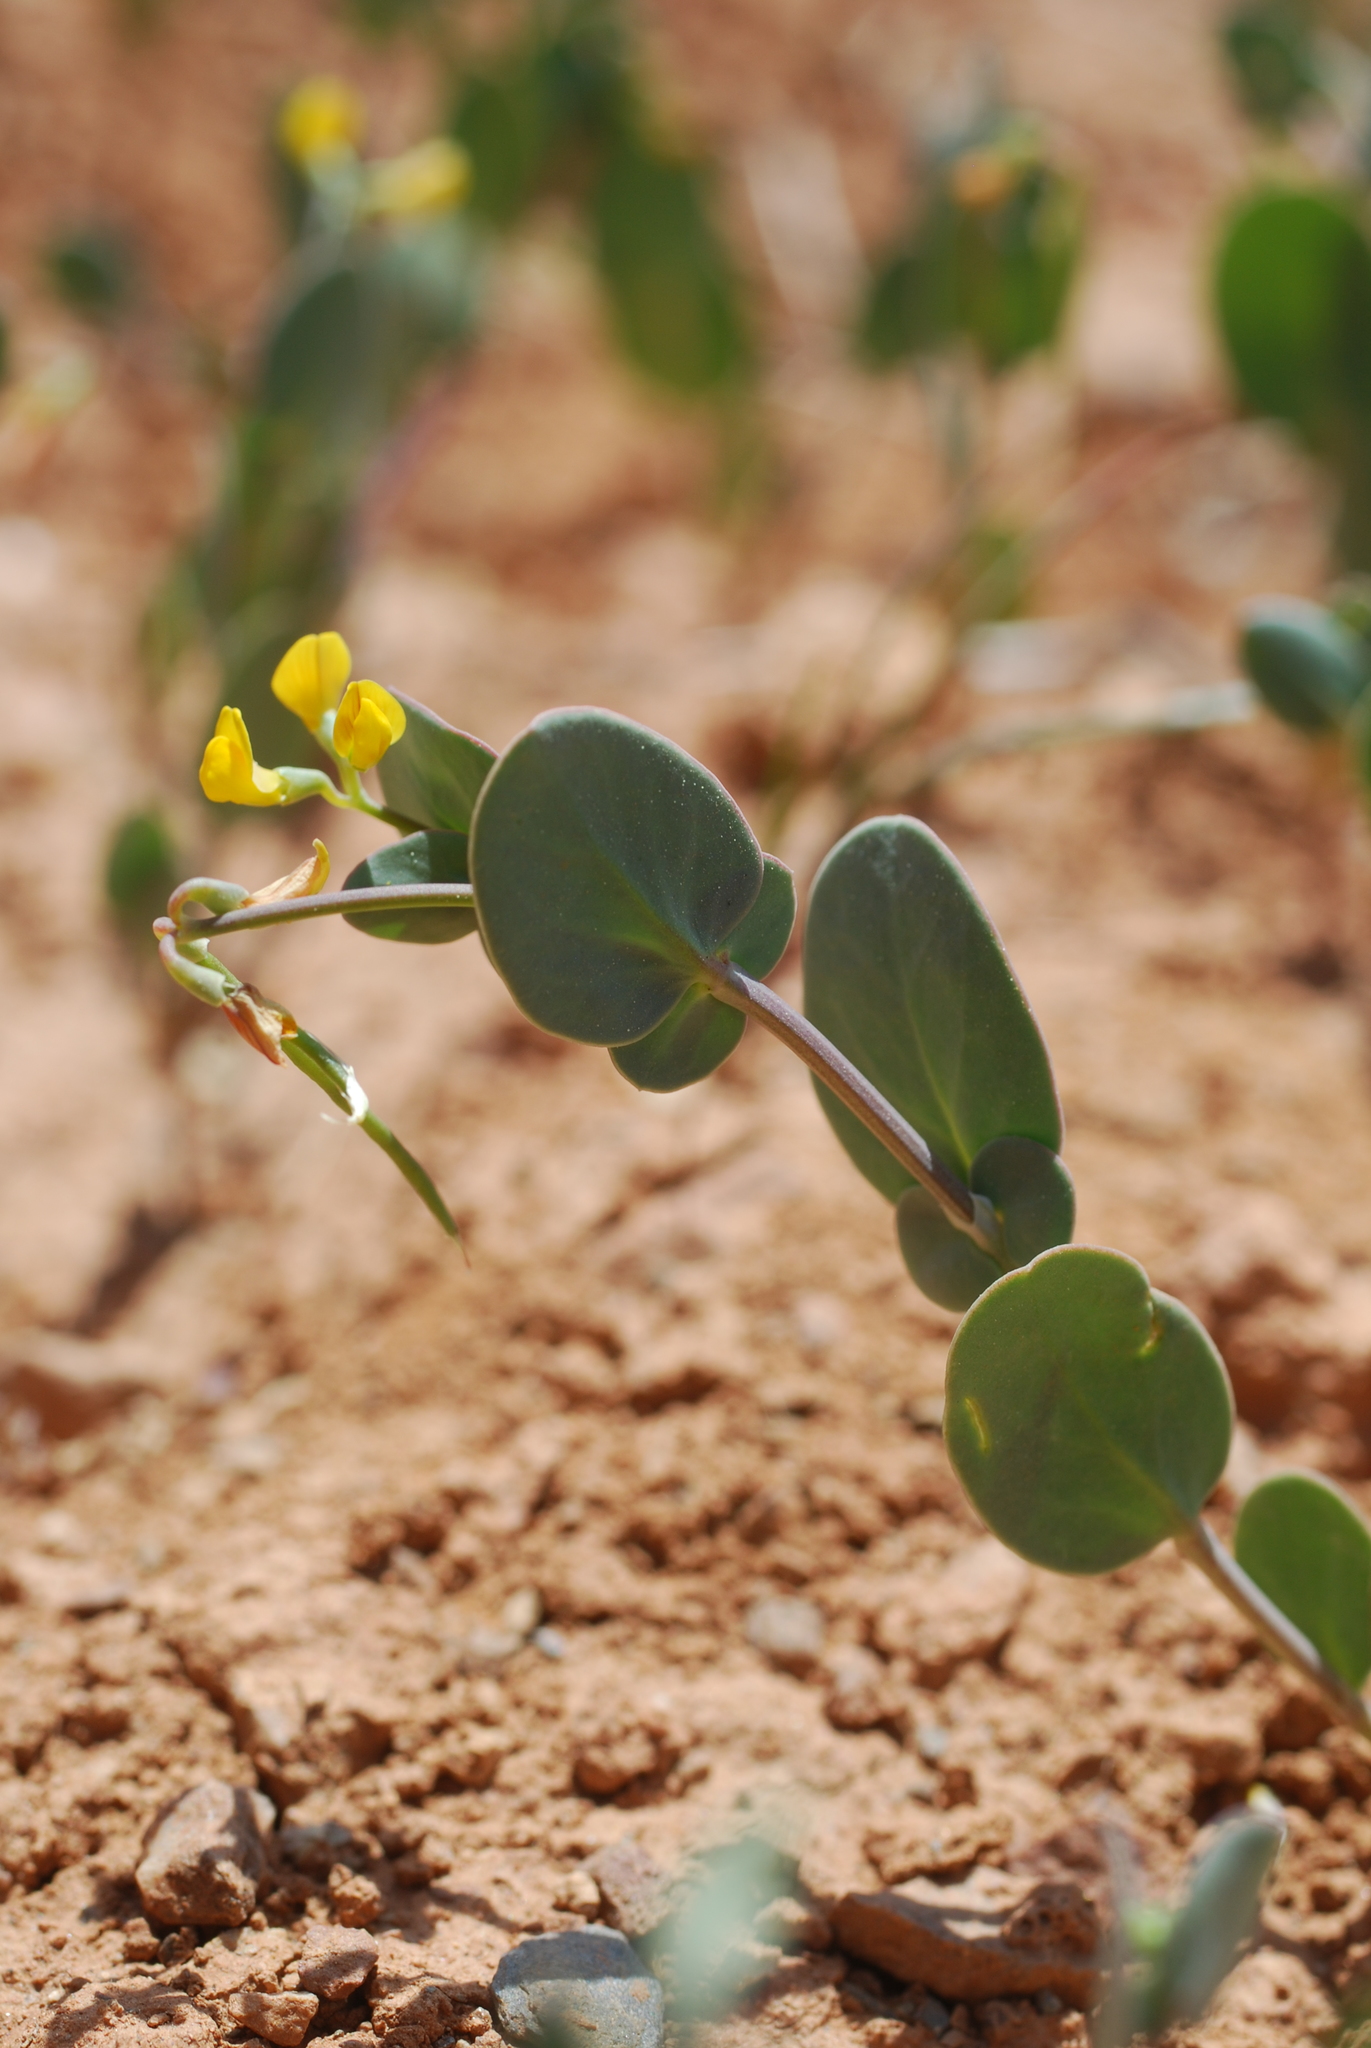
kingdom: Plantae
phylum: Tracheophyta
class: Magnoliopsida
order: Fabales
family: Fabaceae
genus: Coronilla
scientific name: Coronilla scorpioides
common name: Annual scorpion-vetch
